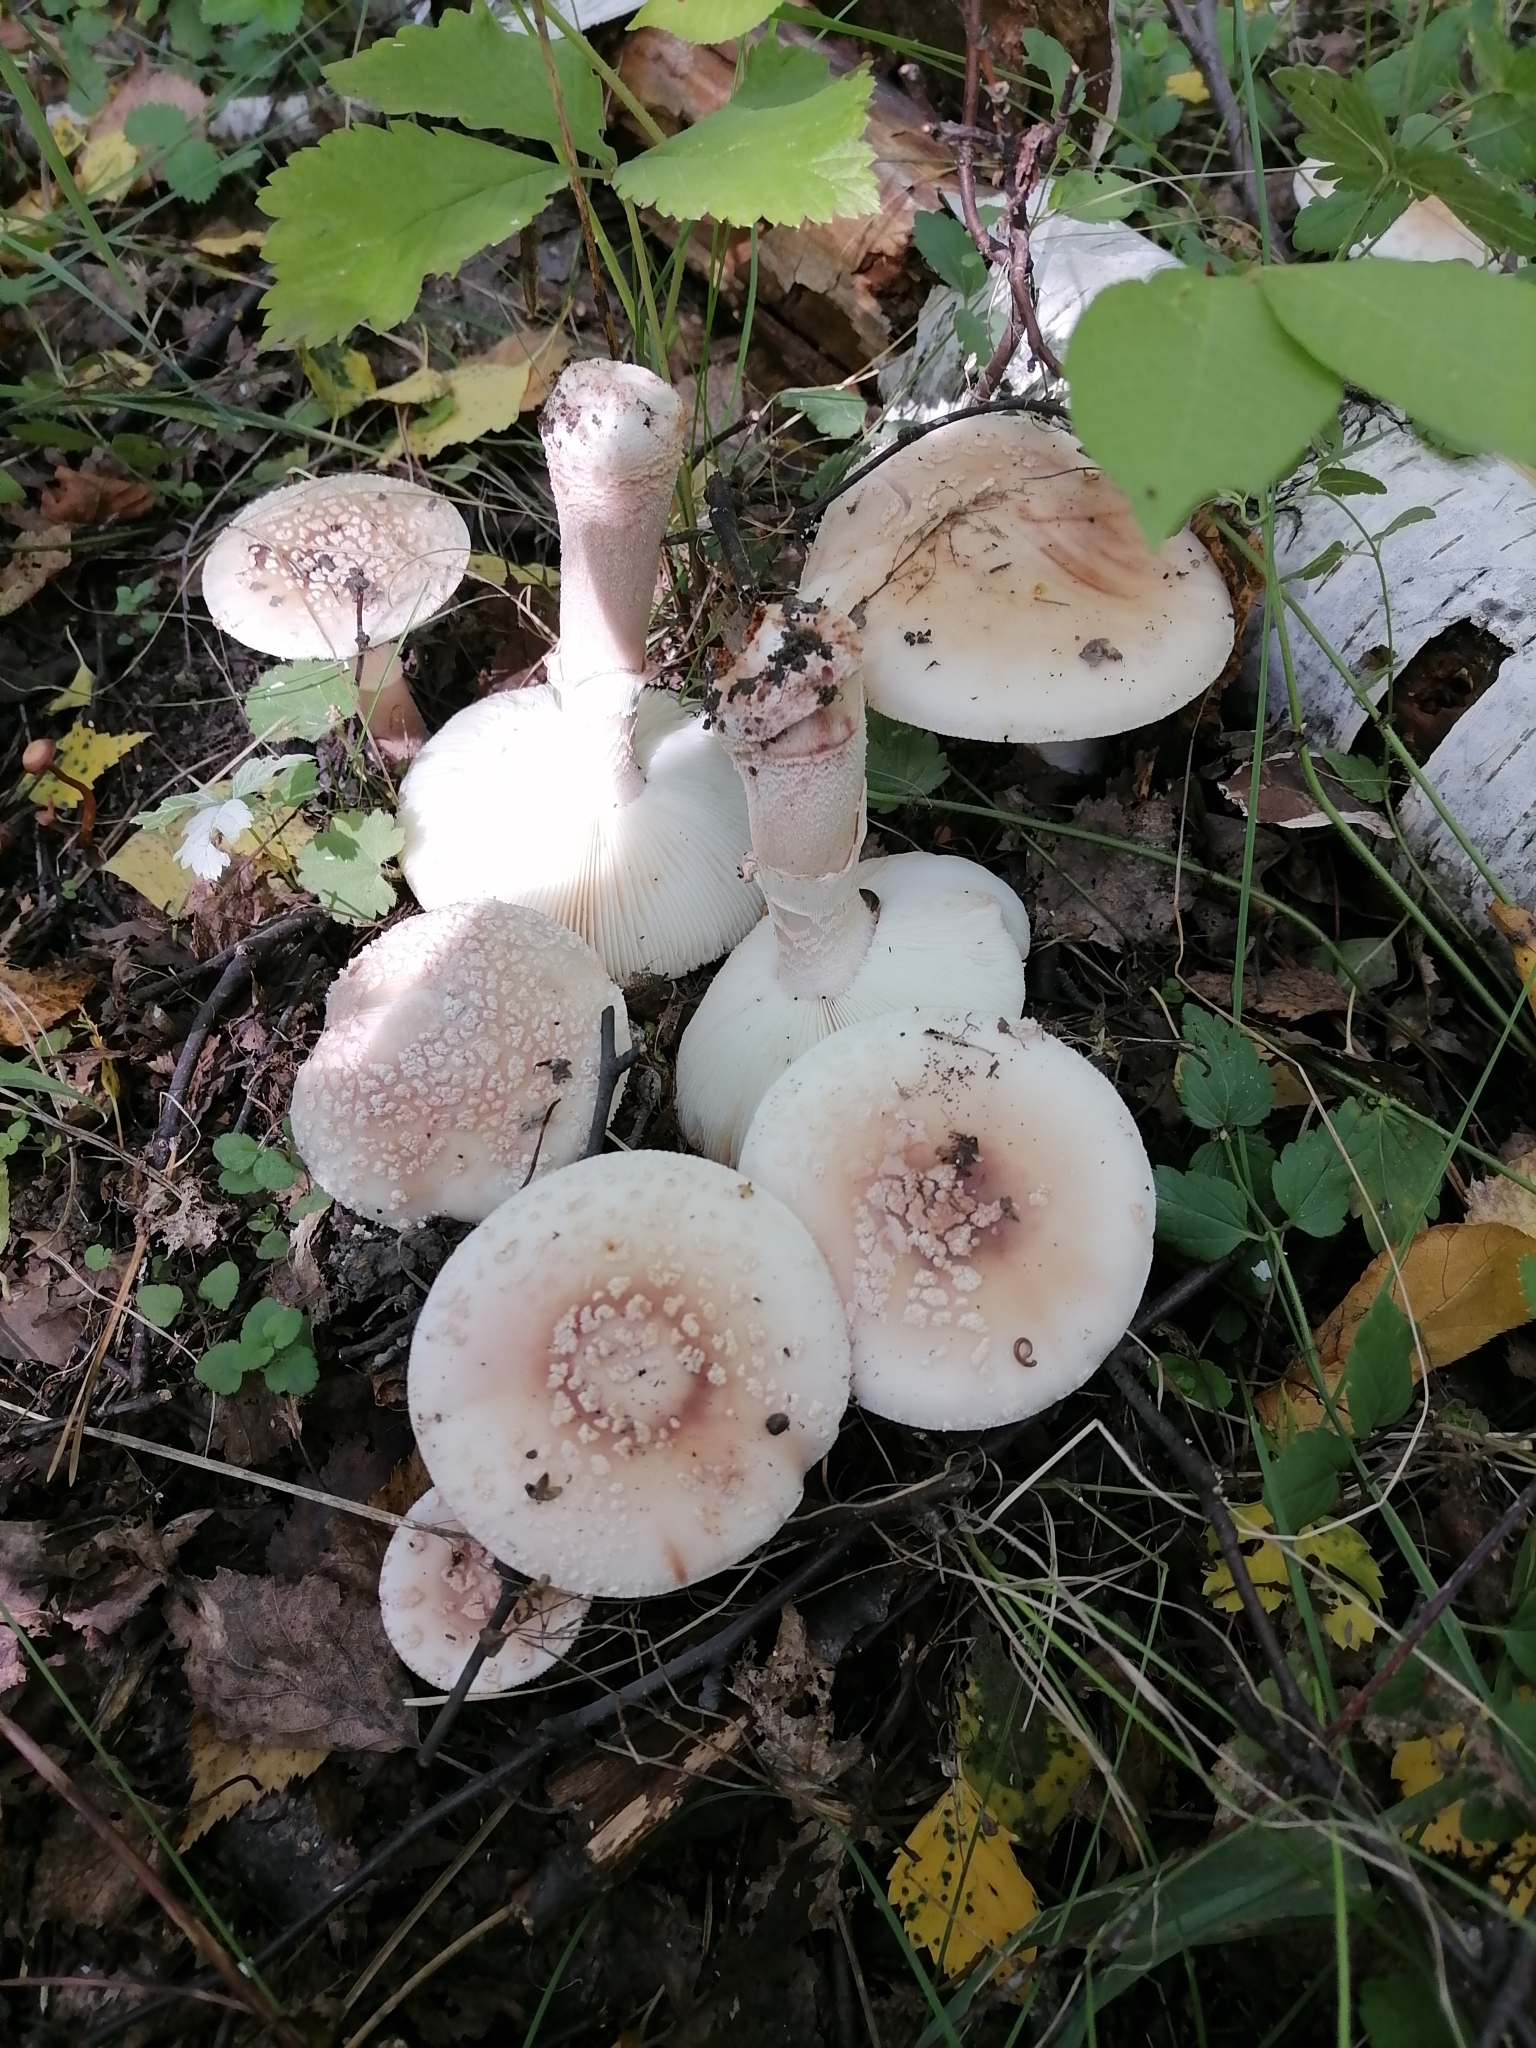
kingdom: Fungi
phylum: Basidiomycota
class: Agaricomycetes
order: Agaricales
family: Amanitaceae
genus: Amanita
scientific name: Amanita rubescens
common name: Blusher
